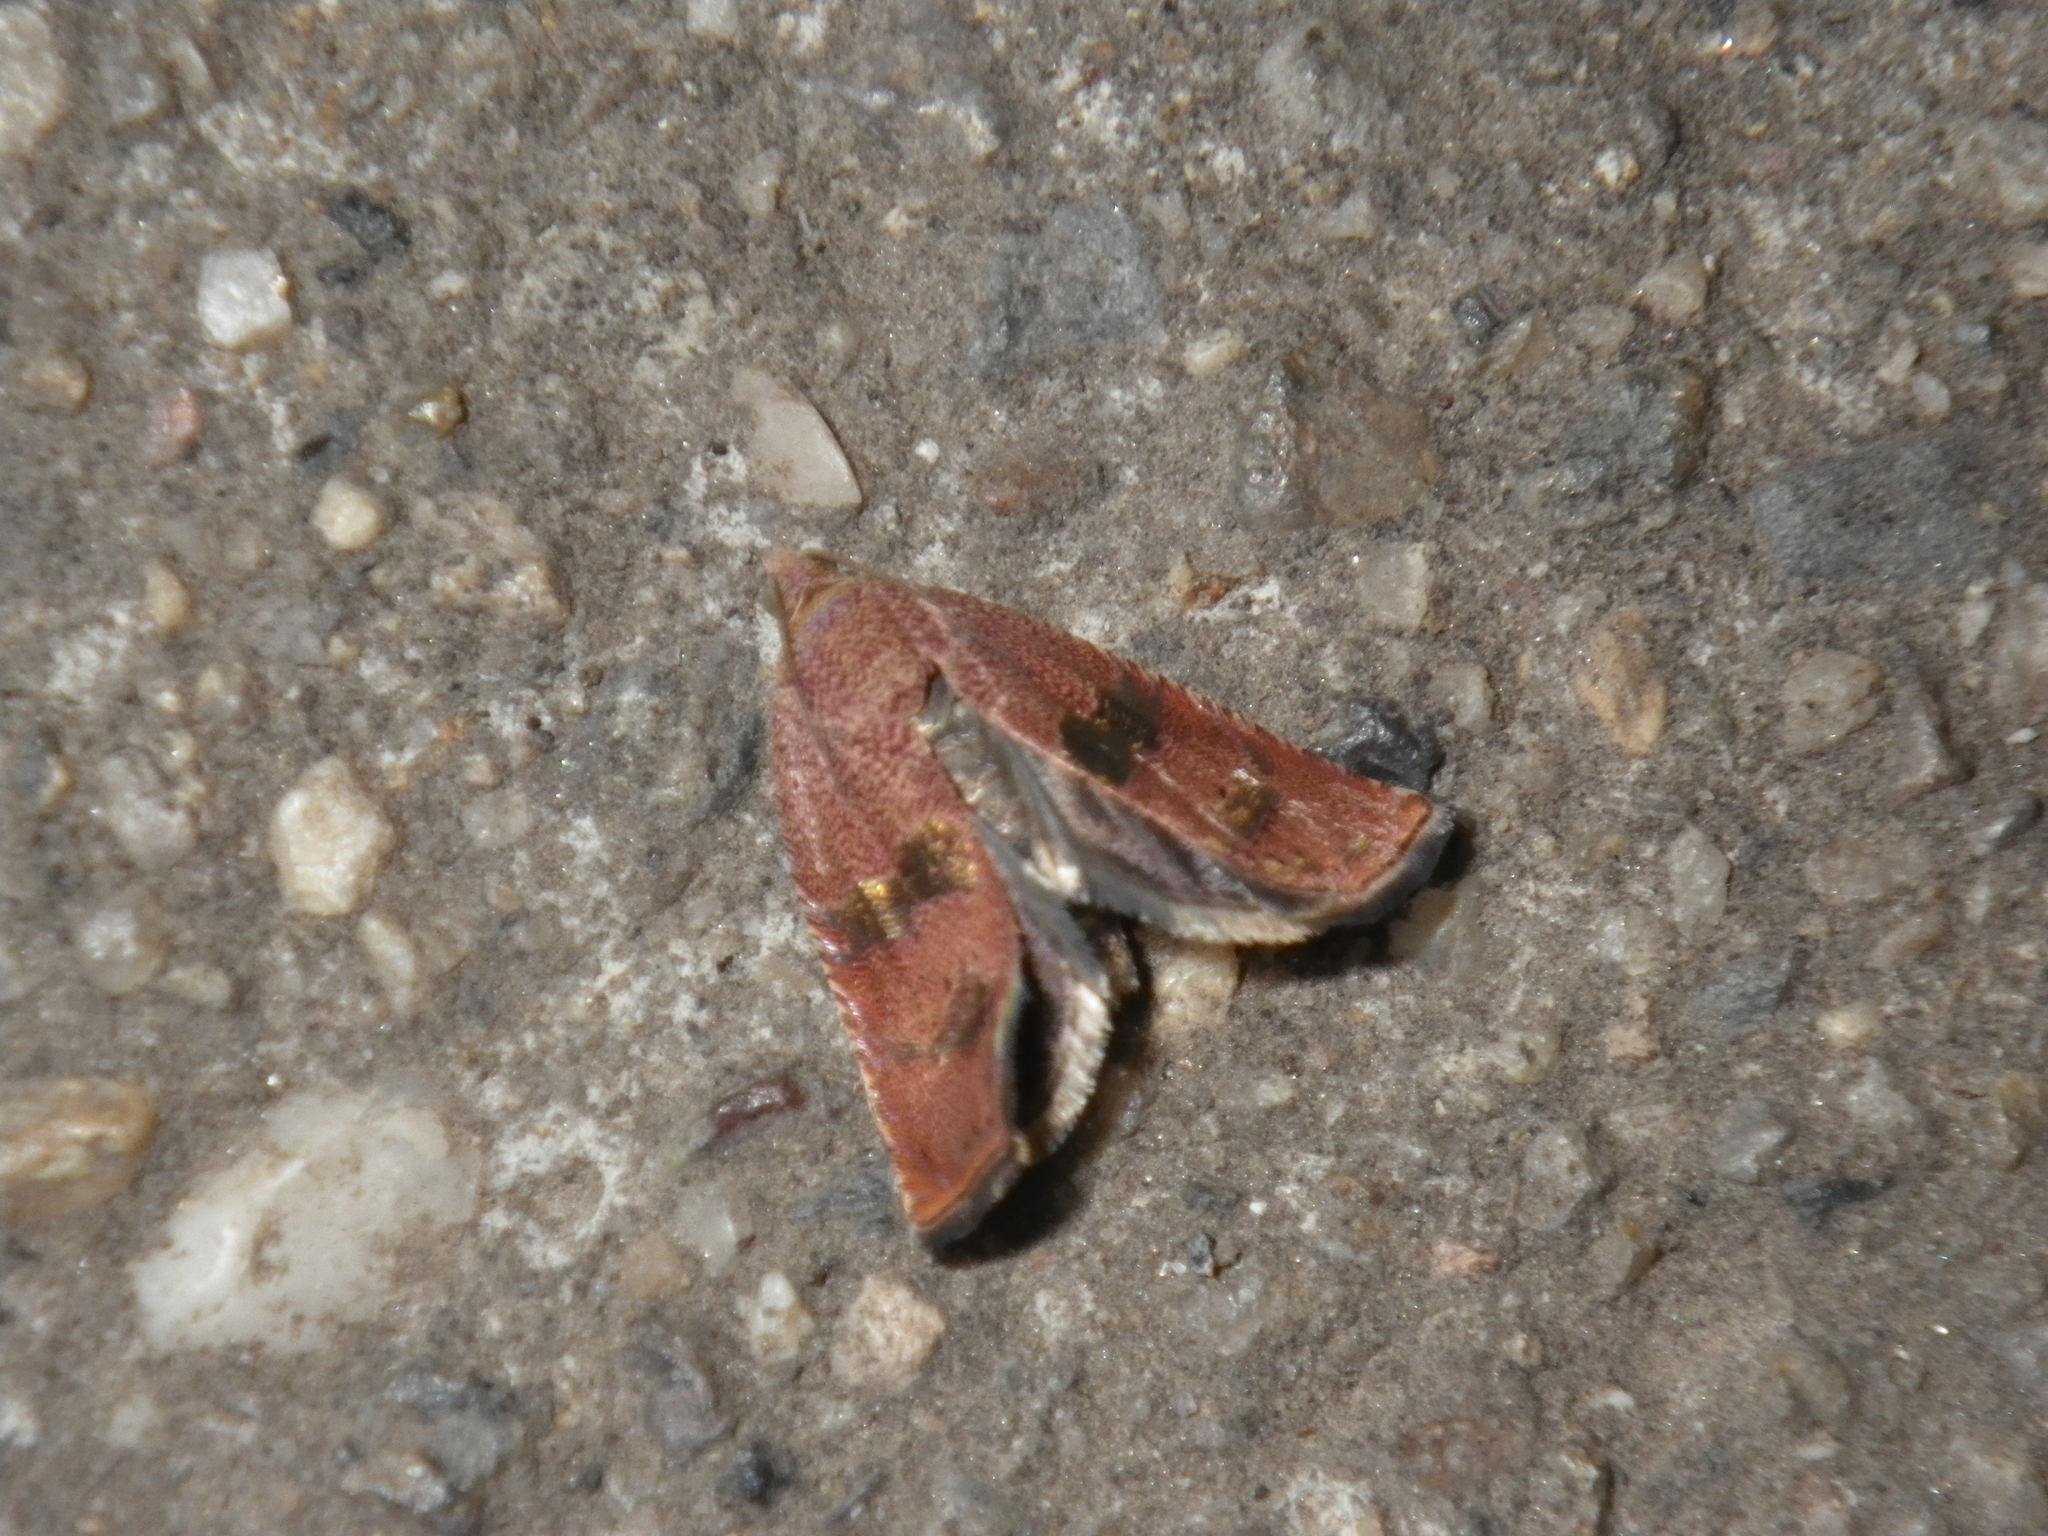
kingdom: Animalia
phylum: Arthropoda
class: Insecta
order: Lepidoptera
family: Tortricidae
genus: Cydia
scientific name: Cydia latiferreana
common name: Filbertworm moth
